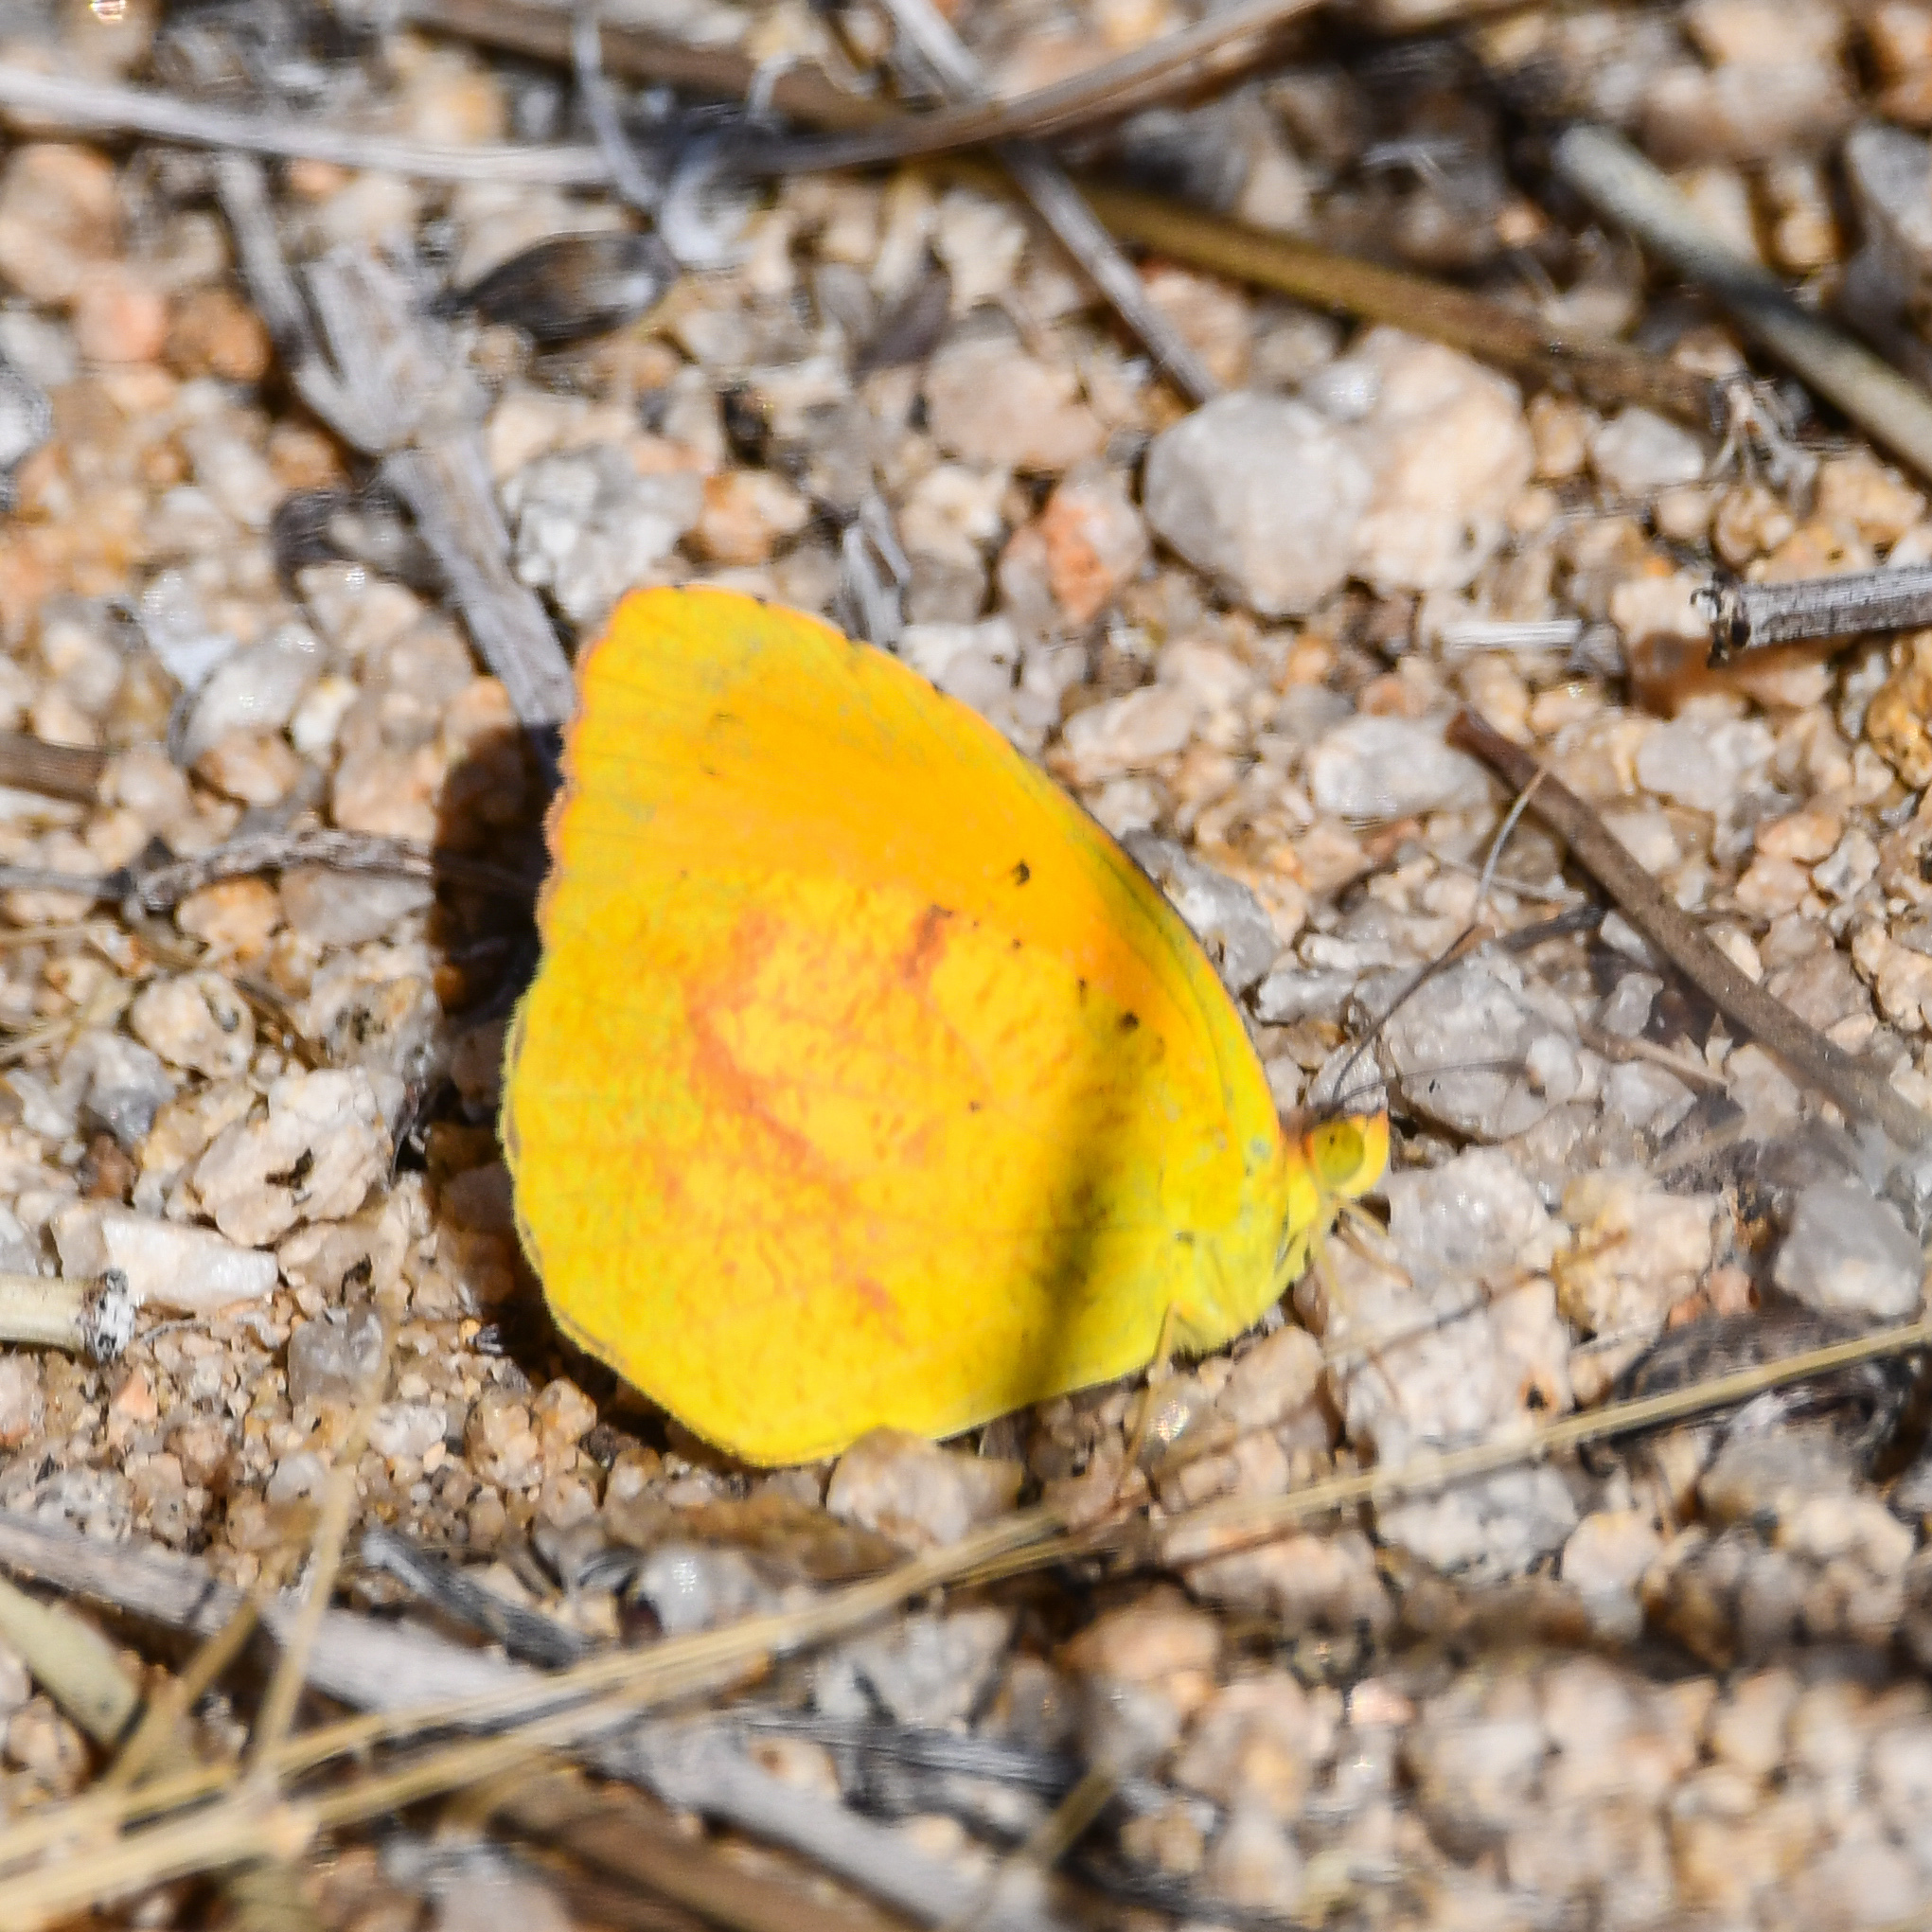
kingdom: Animalia
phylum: Arthropoda
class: Insecta
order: Lepidoptera
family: Pieridae
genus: Abaeis
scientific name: Abaeis nicippe
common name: Sleepy orange
